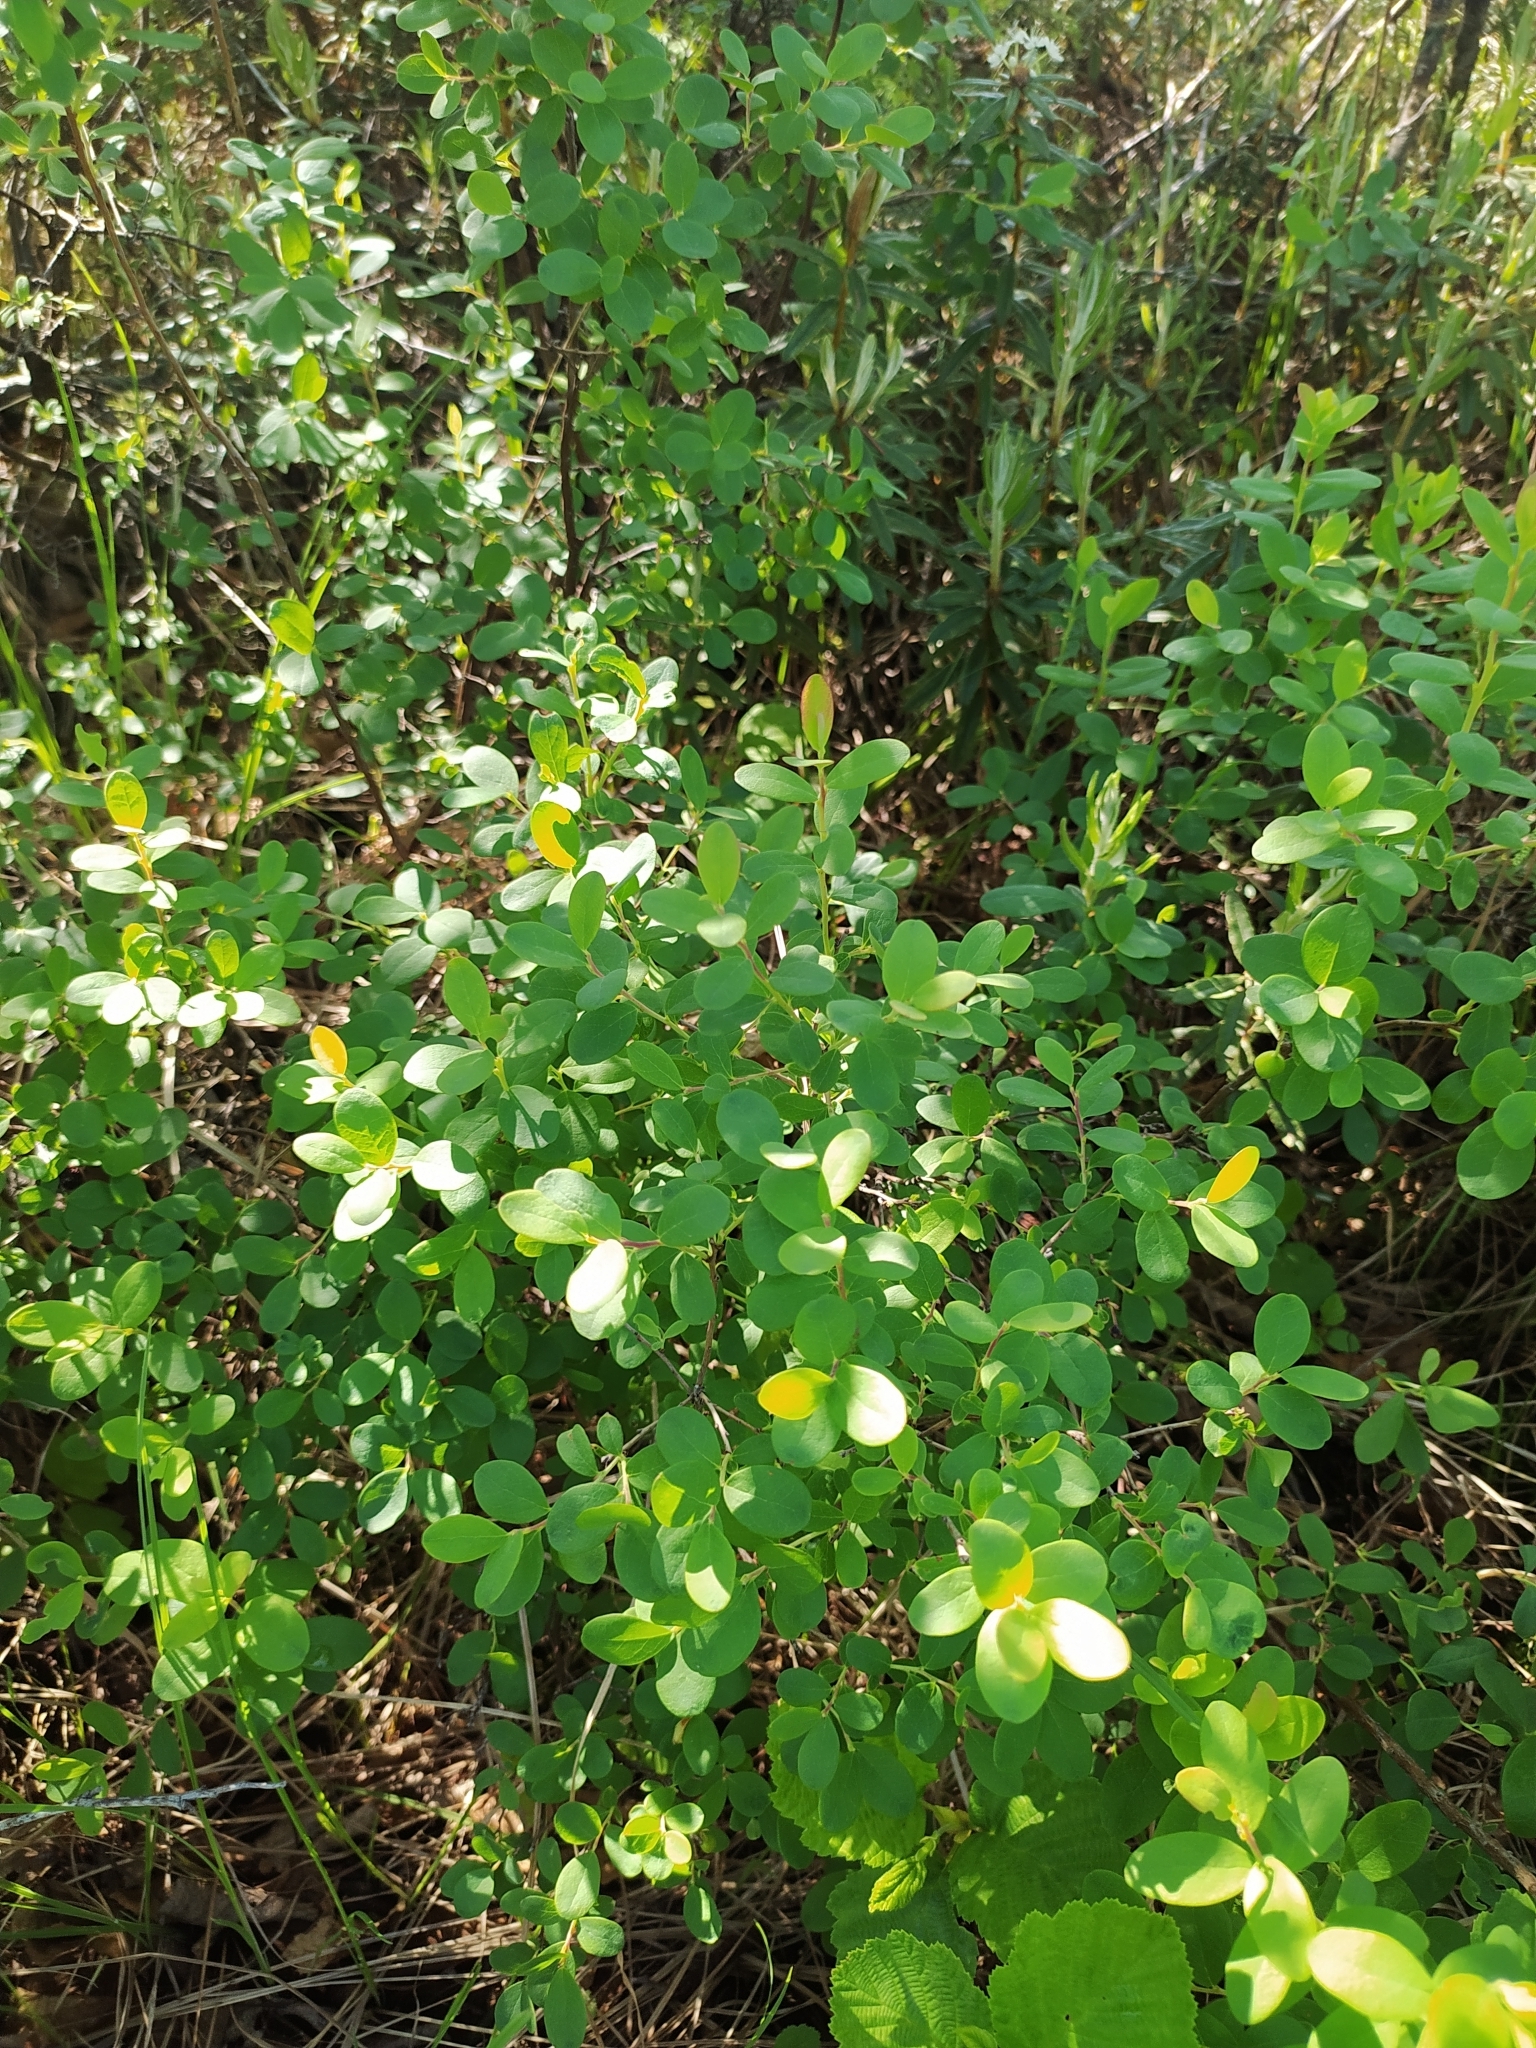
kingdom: Plantae
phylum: Tracheophyta
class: Magnoliopsida
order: Ericales
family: Ericaceae
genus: Vaccinium
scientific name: Vaccinium uliginosum
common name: Bog bilberry
